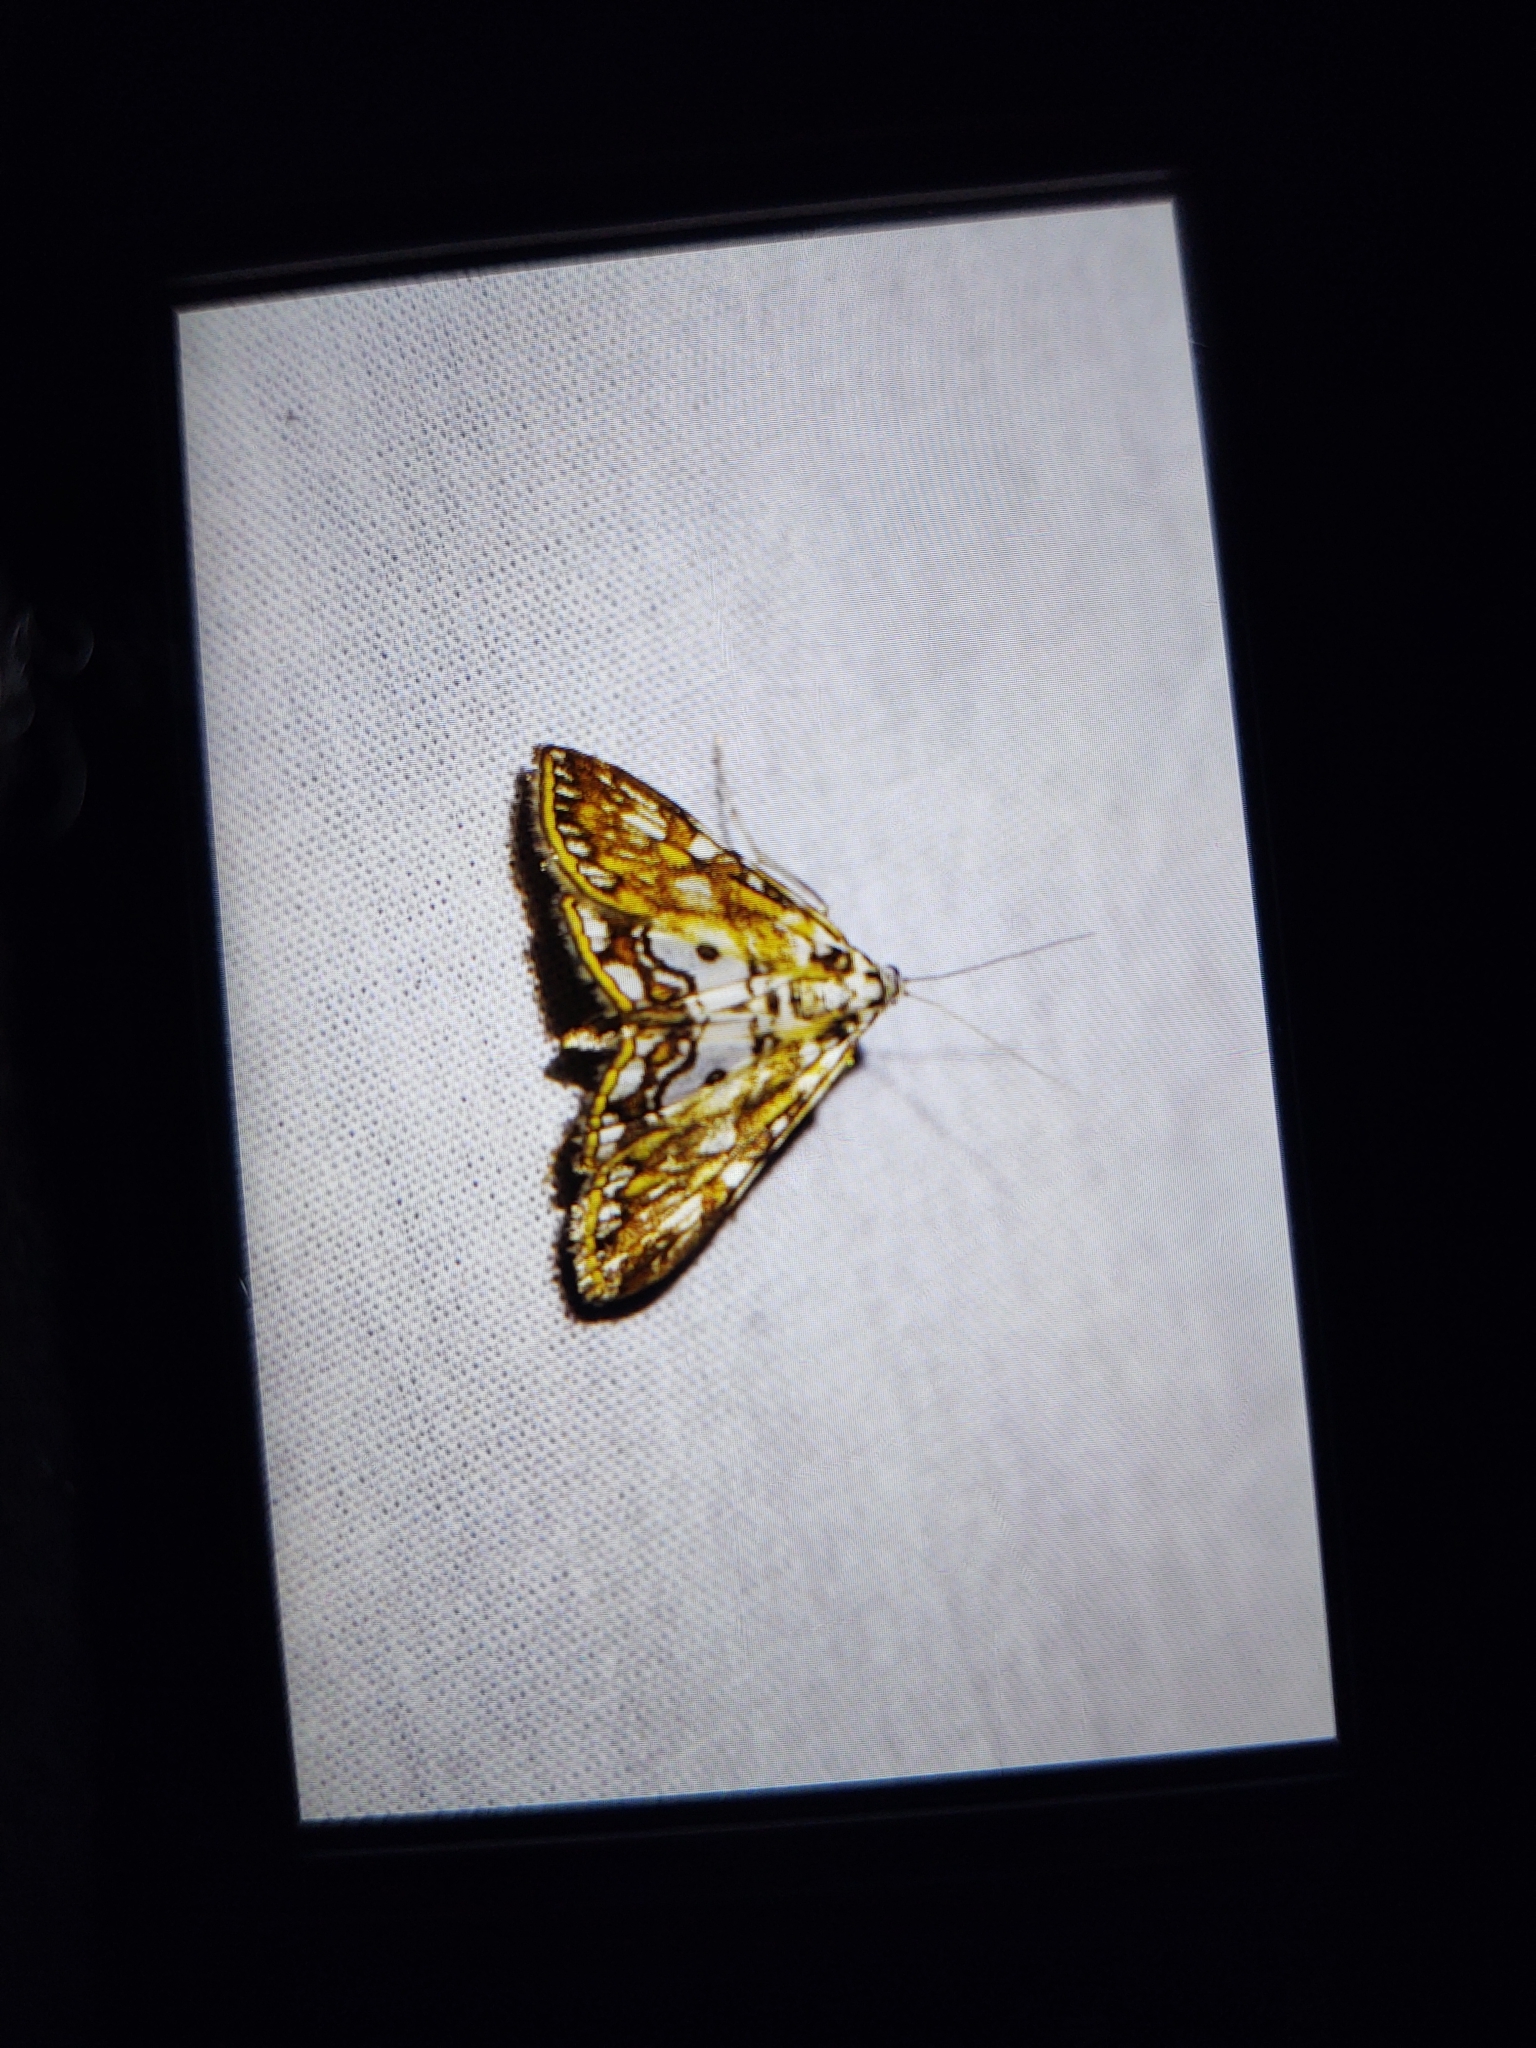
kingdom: Animalia
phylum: Arthropoda
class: Insecta
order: Lepidoptera
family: Crambidae
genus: Elophila
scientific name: Elophila nymphaeata
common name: Brown china-mark
